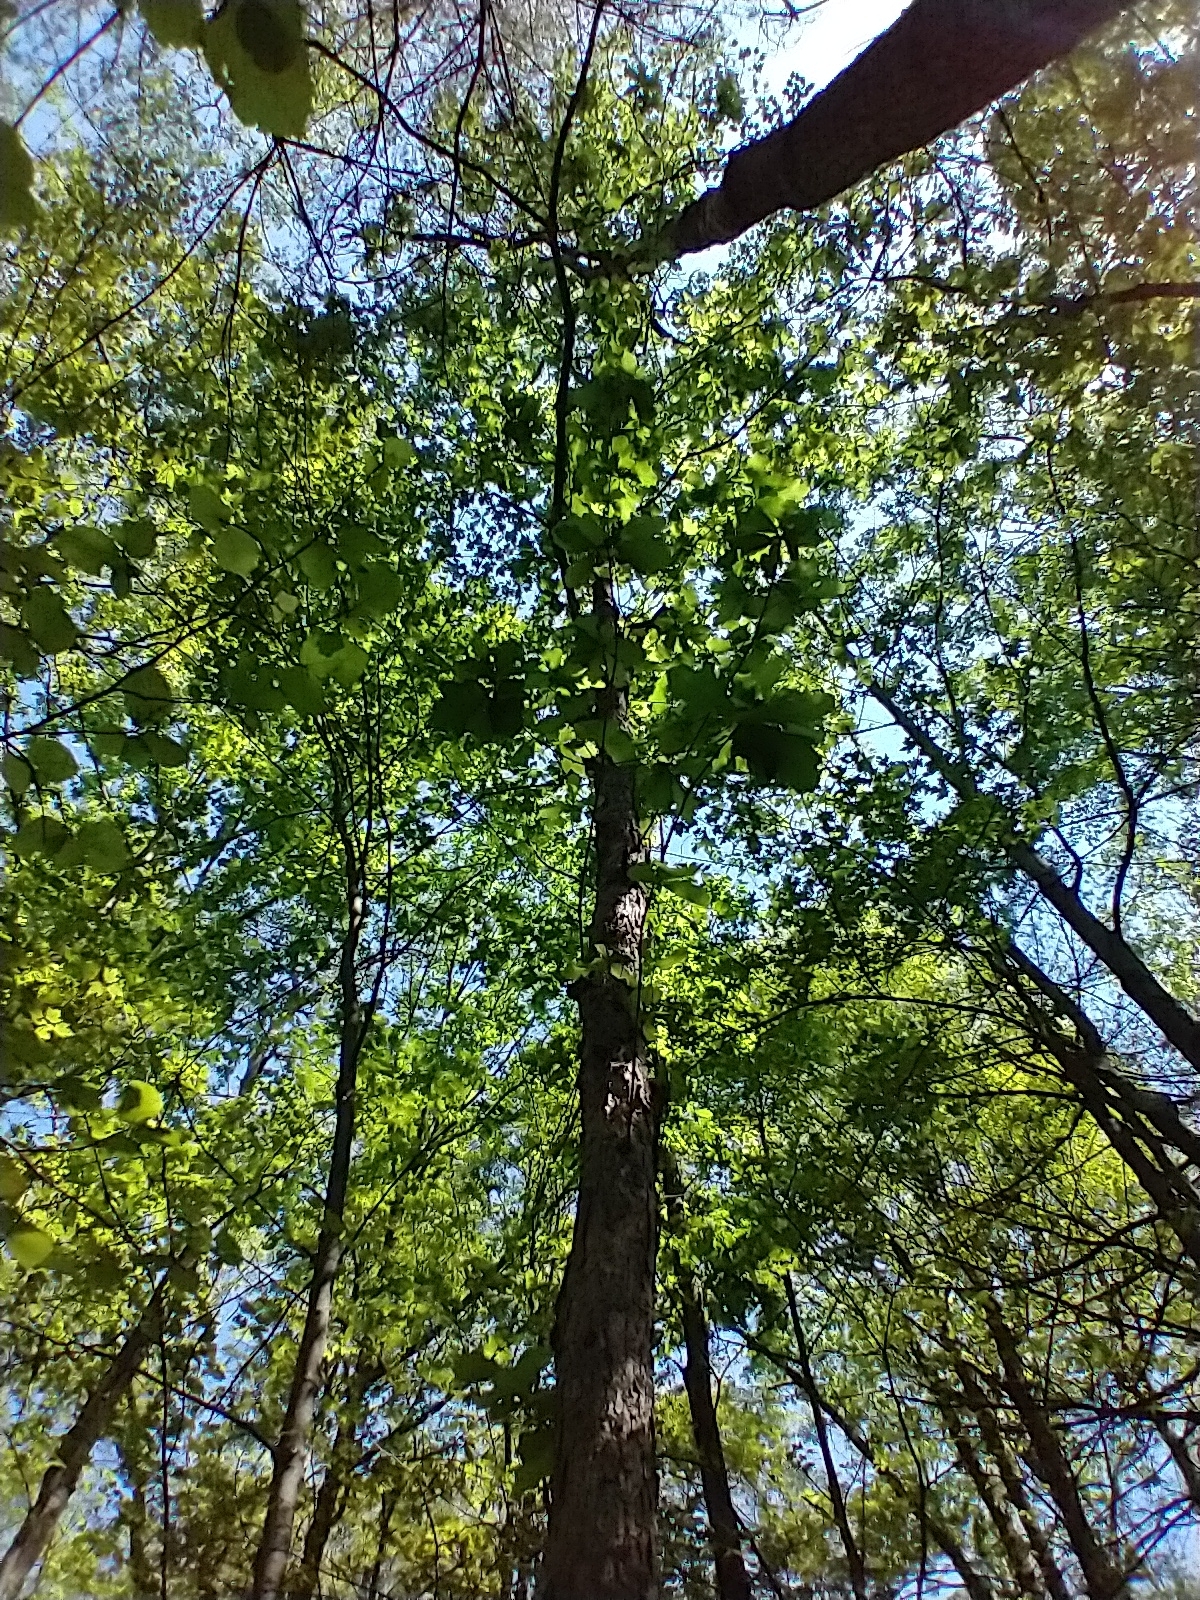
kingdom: Plantae
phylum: Tracheophyta
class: Magnoliopsida
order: Fagales
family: Fagaceae
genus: Quercus
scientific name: Quercus alba
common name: White oak
